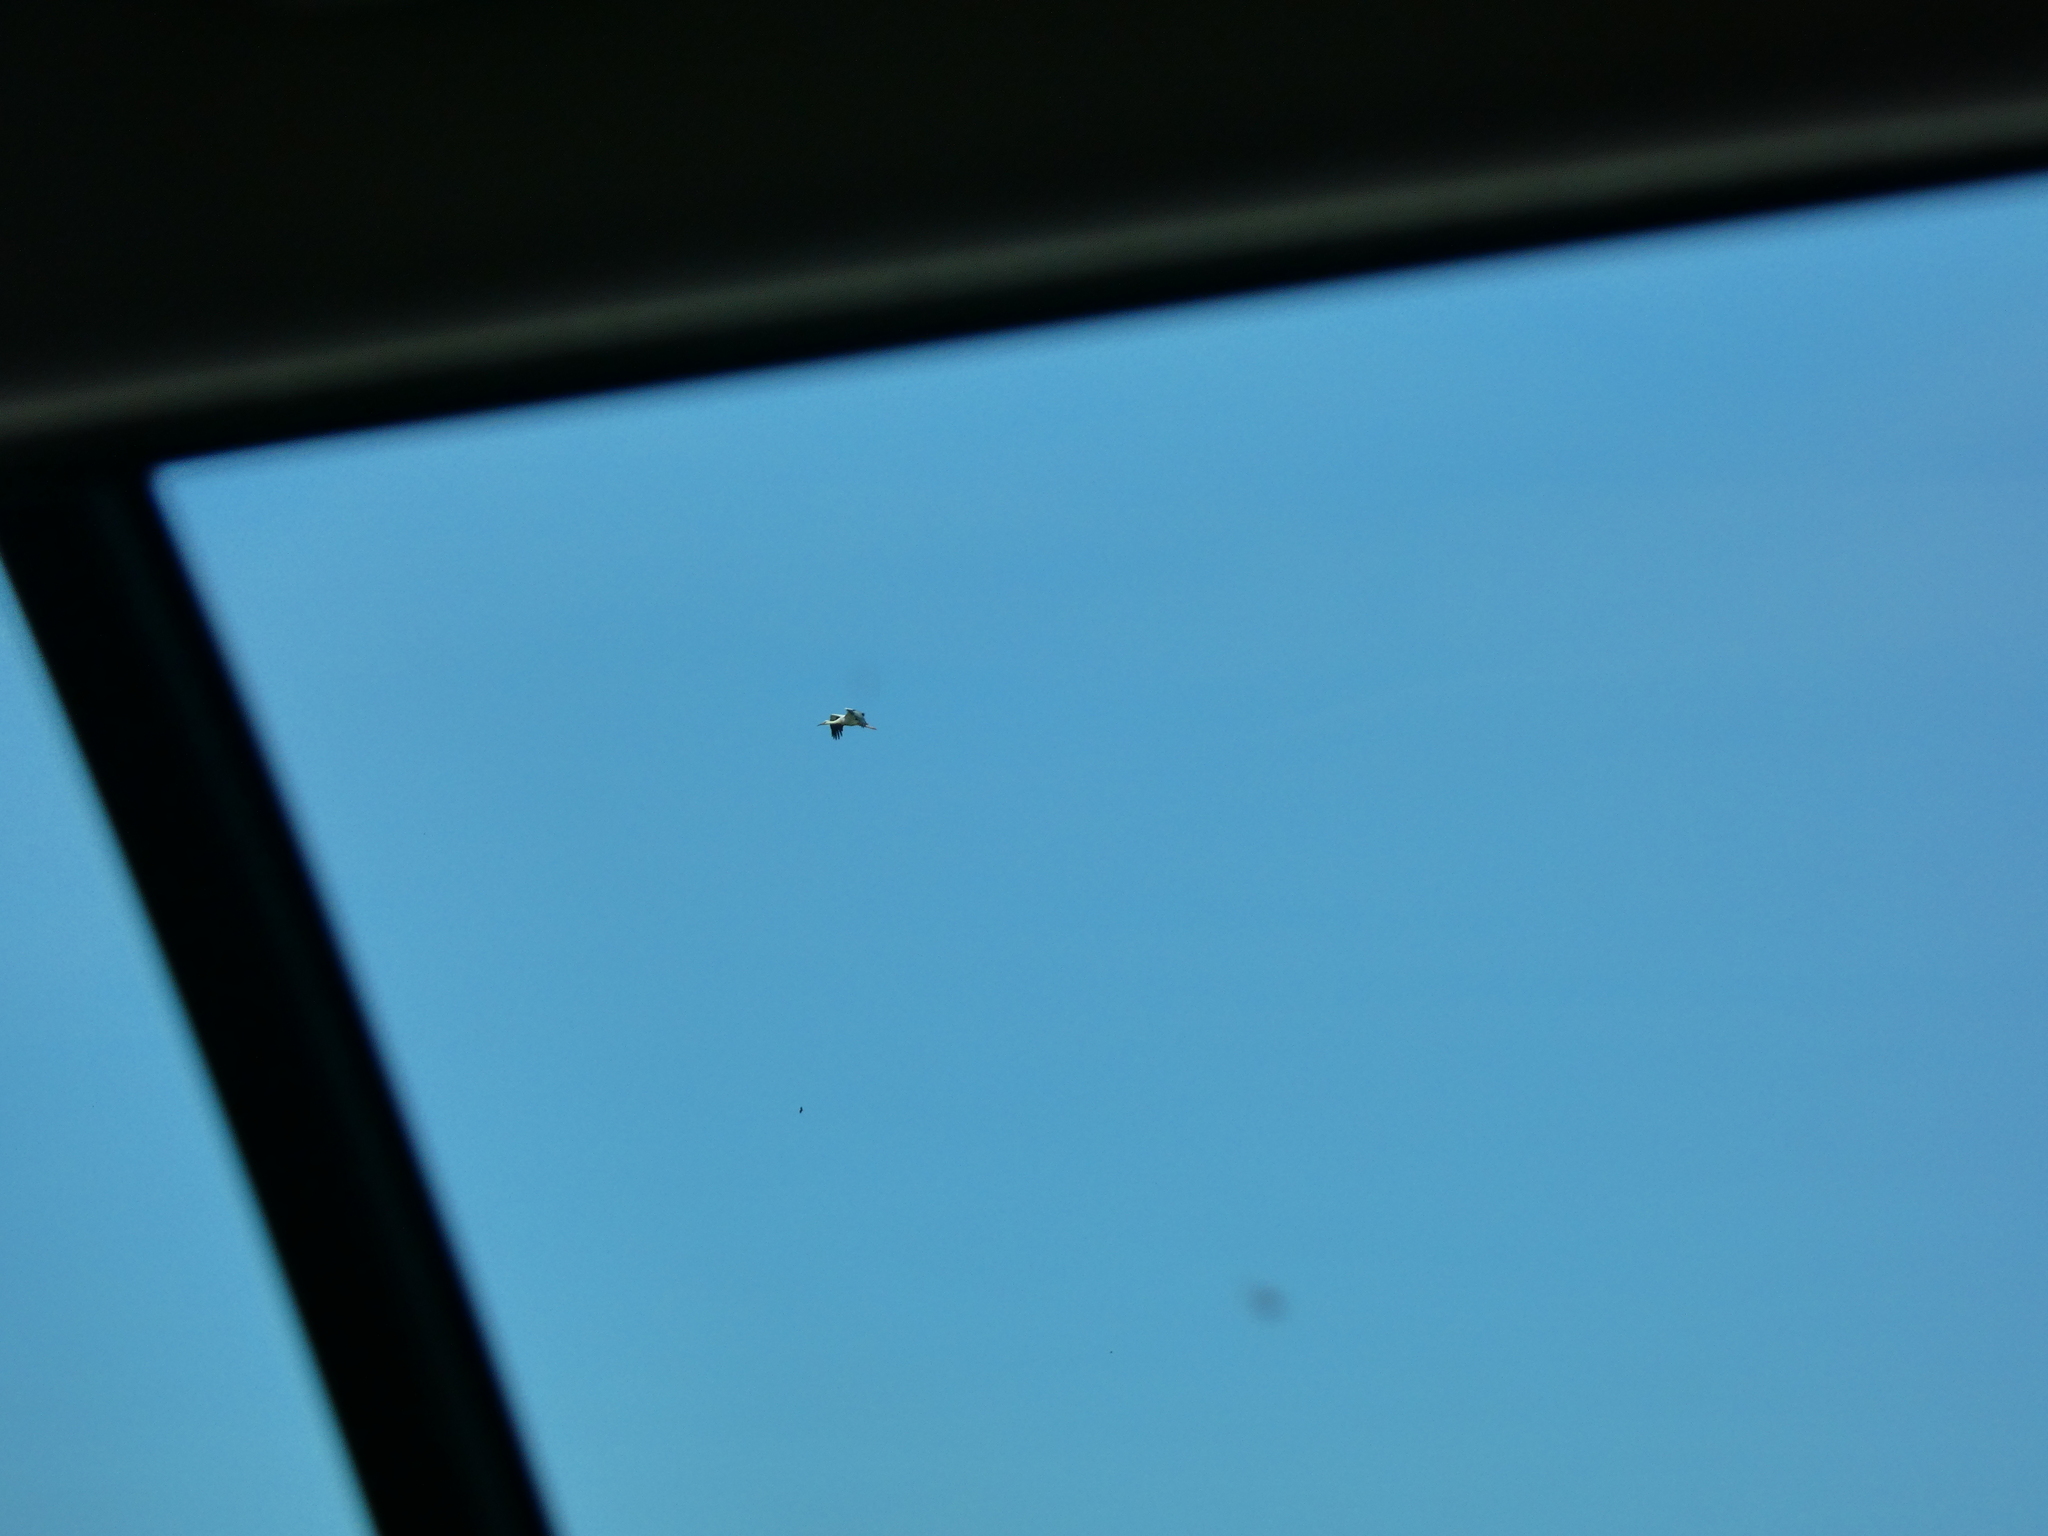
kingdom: Animalia
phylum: Chordata
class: Aves
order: Ciconiiformes
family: Ciconiidae
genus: Ciconia
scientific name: Ciconia ciconia
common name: White stork
